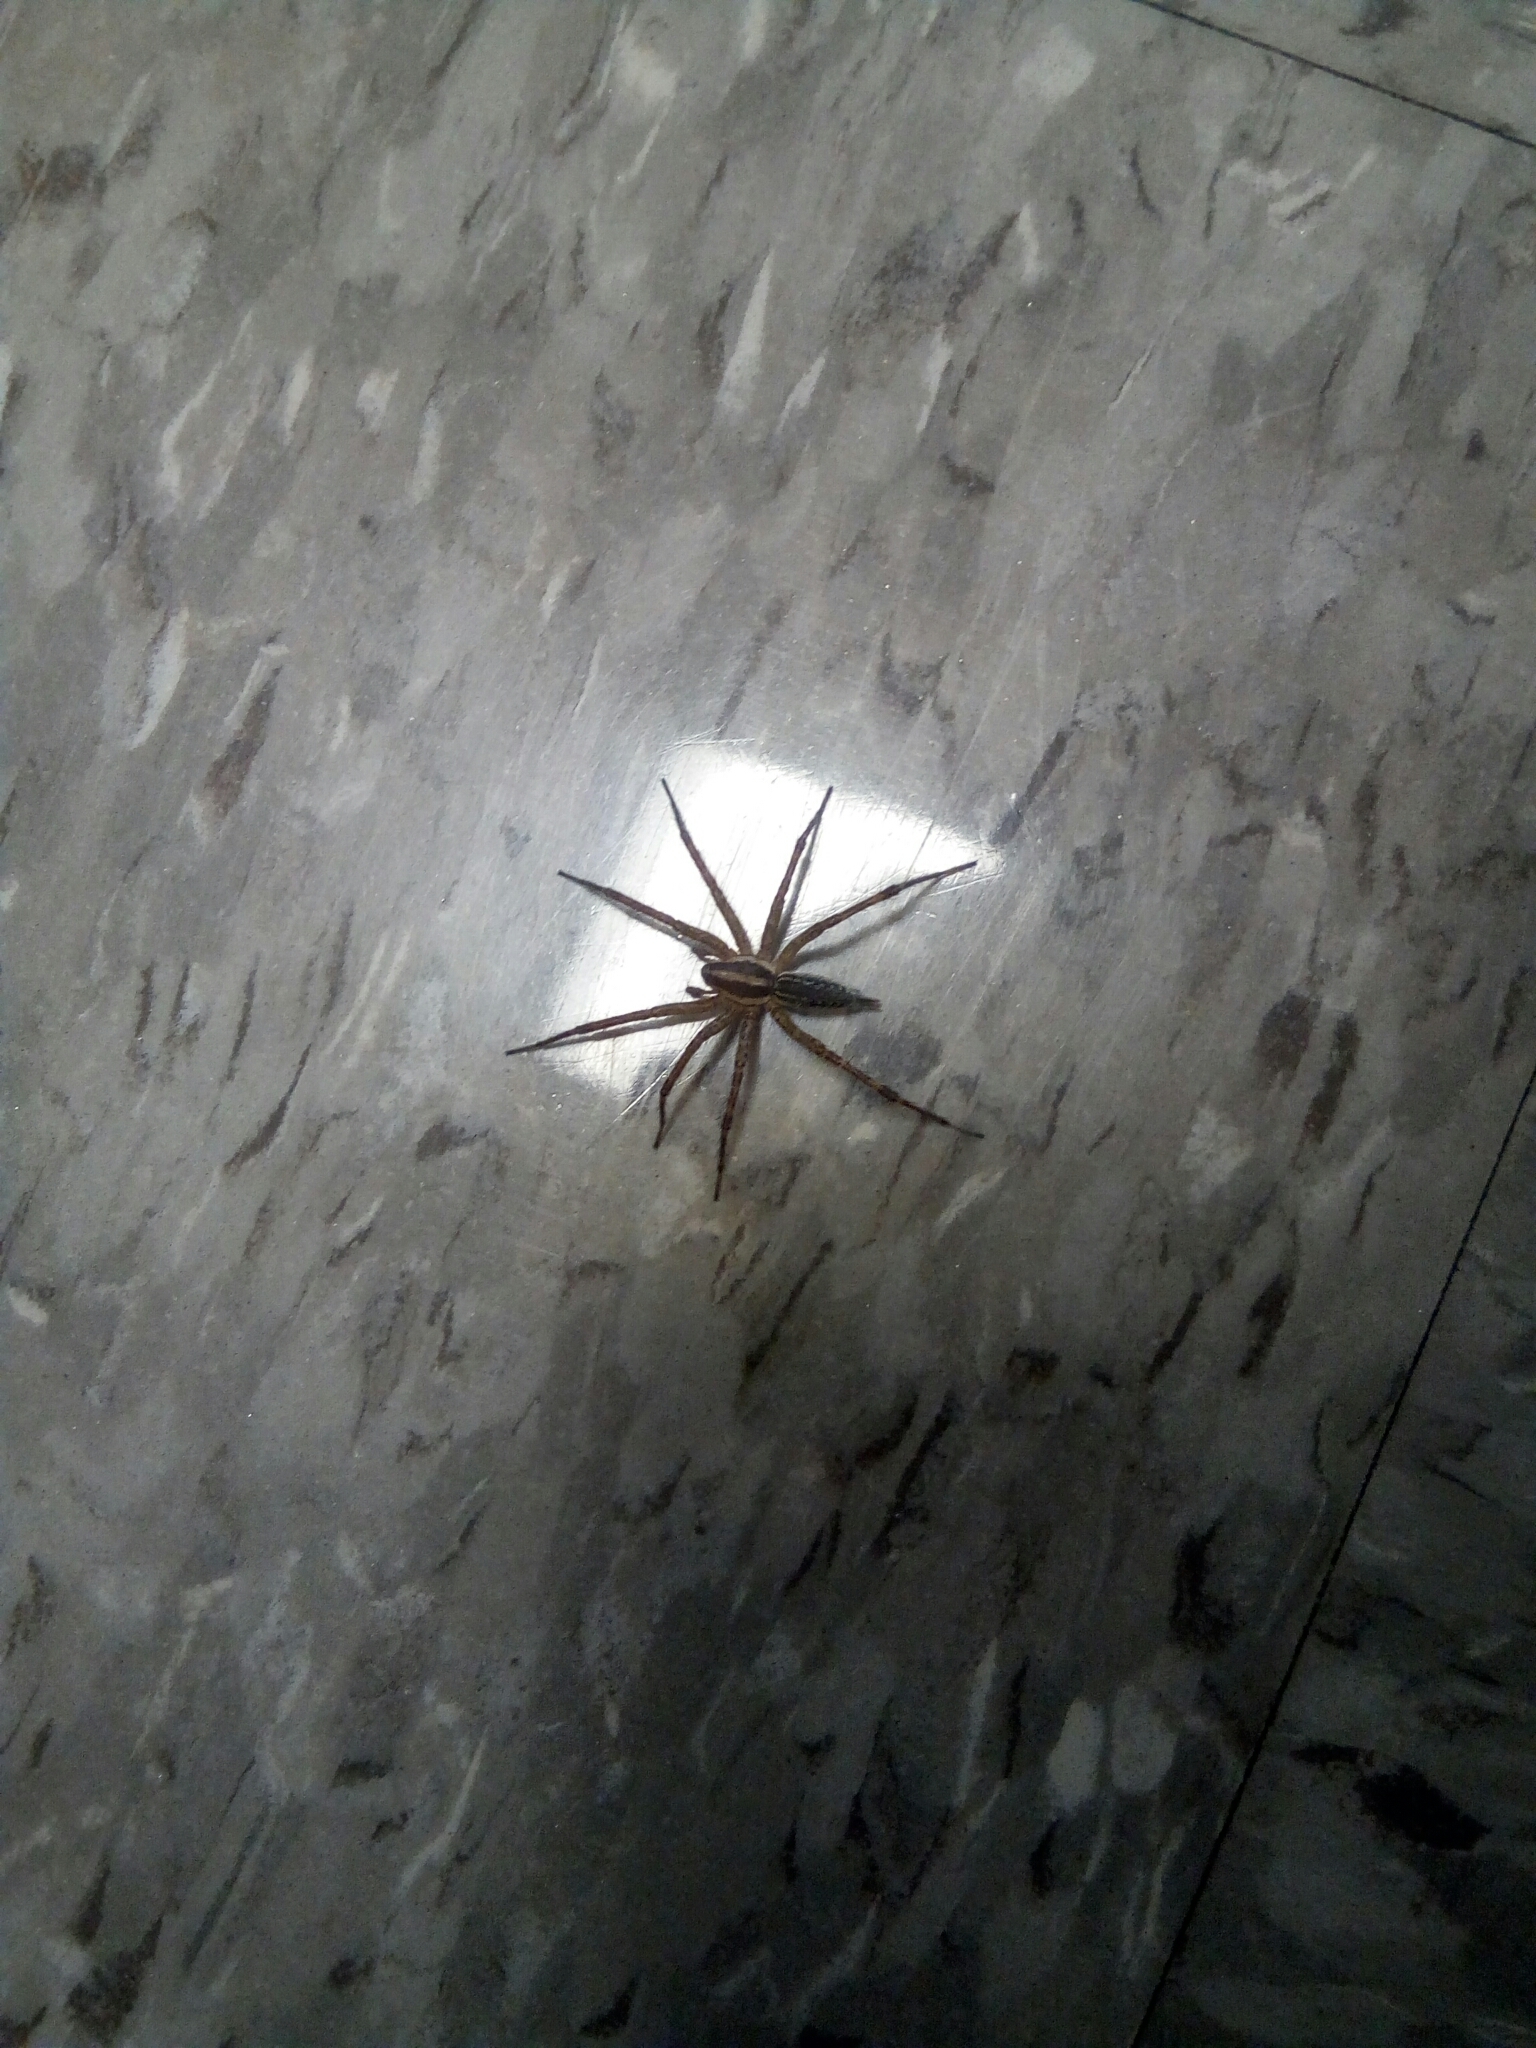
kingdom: Animalia
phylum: Arthropoda
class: Arachnida
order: Araneae
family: Agelenidae
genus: Agelenopsis
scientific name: Agelenopsis
